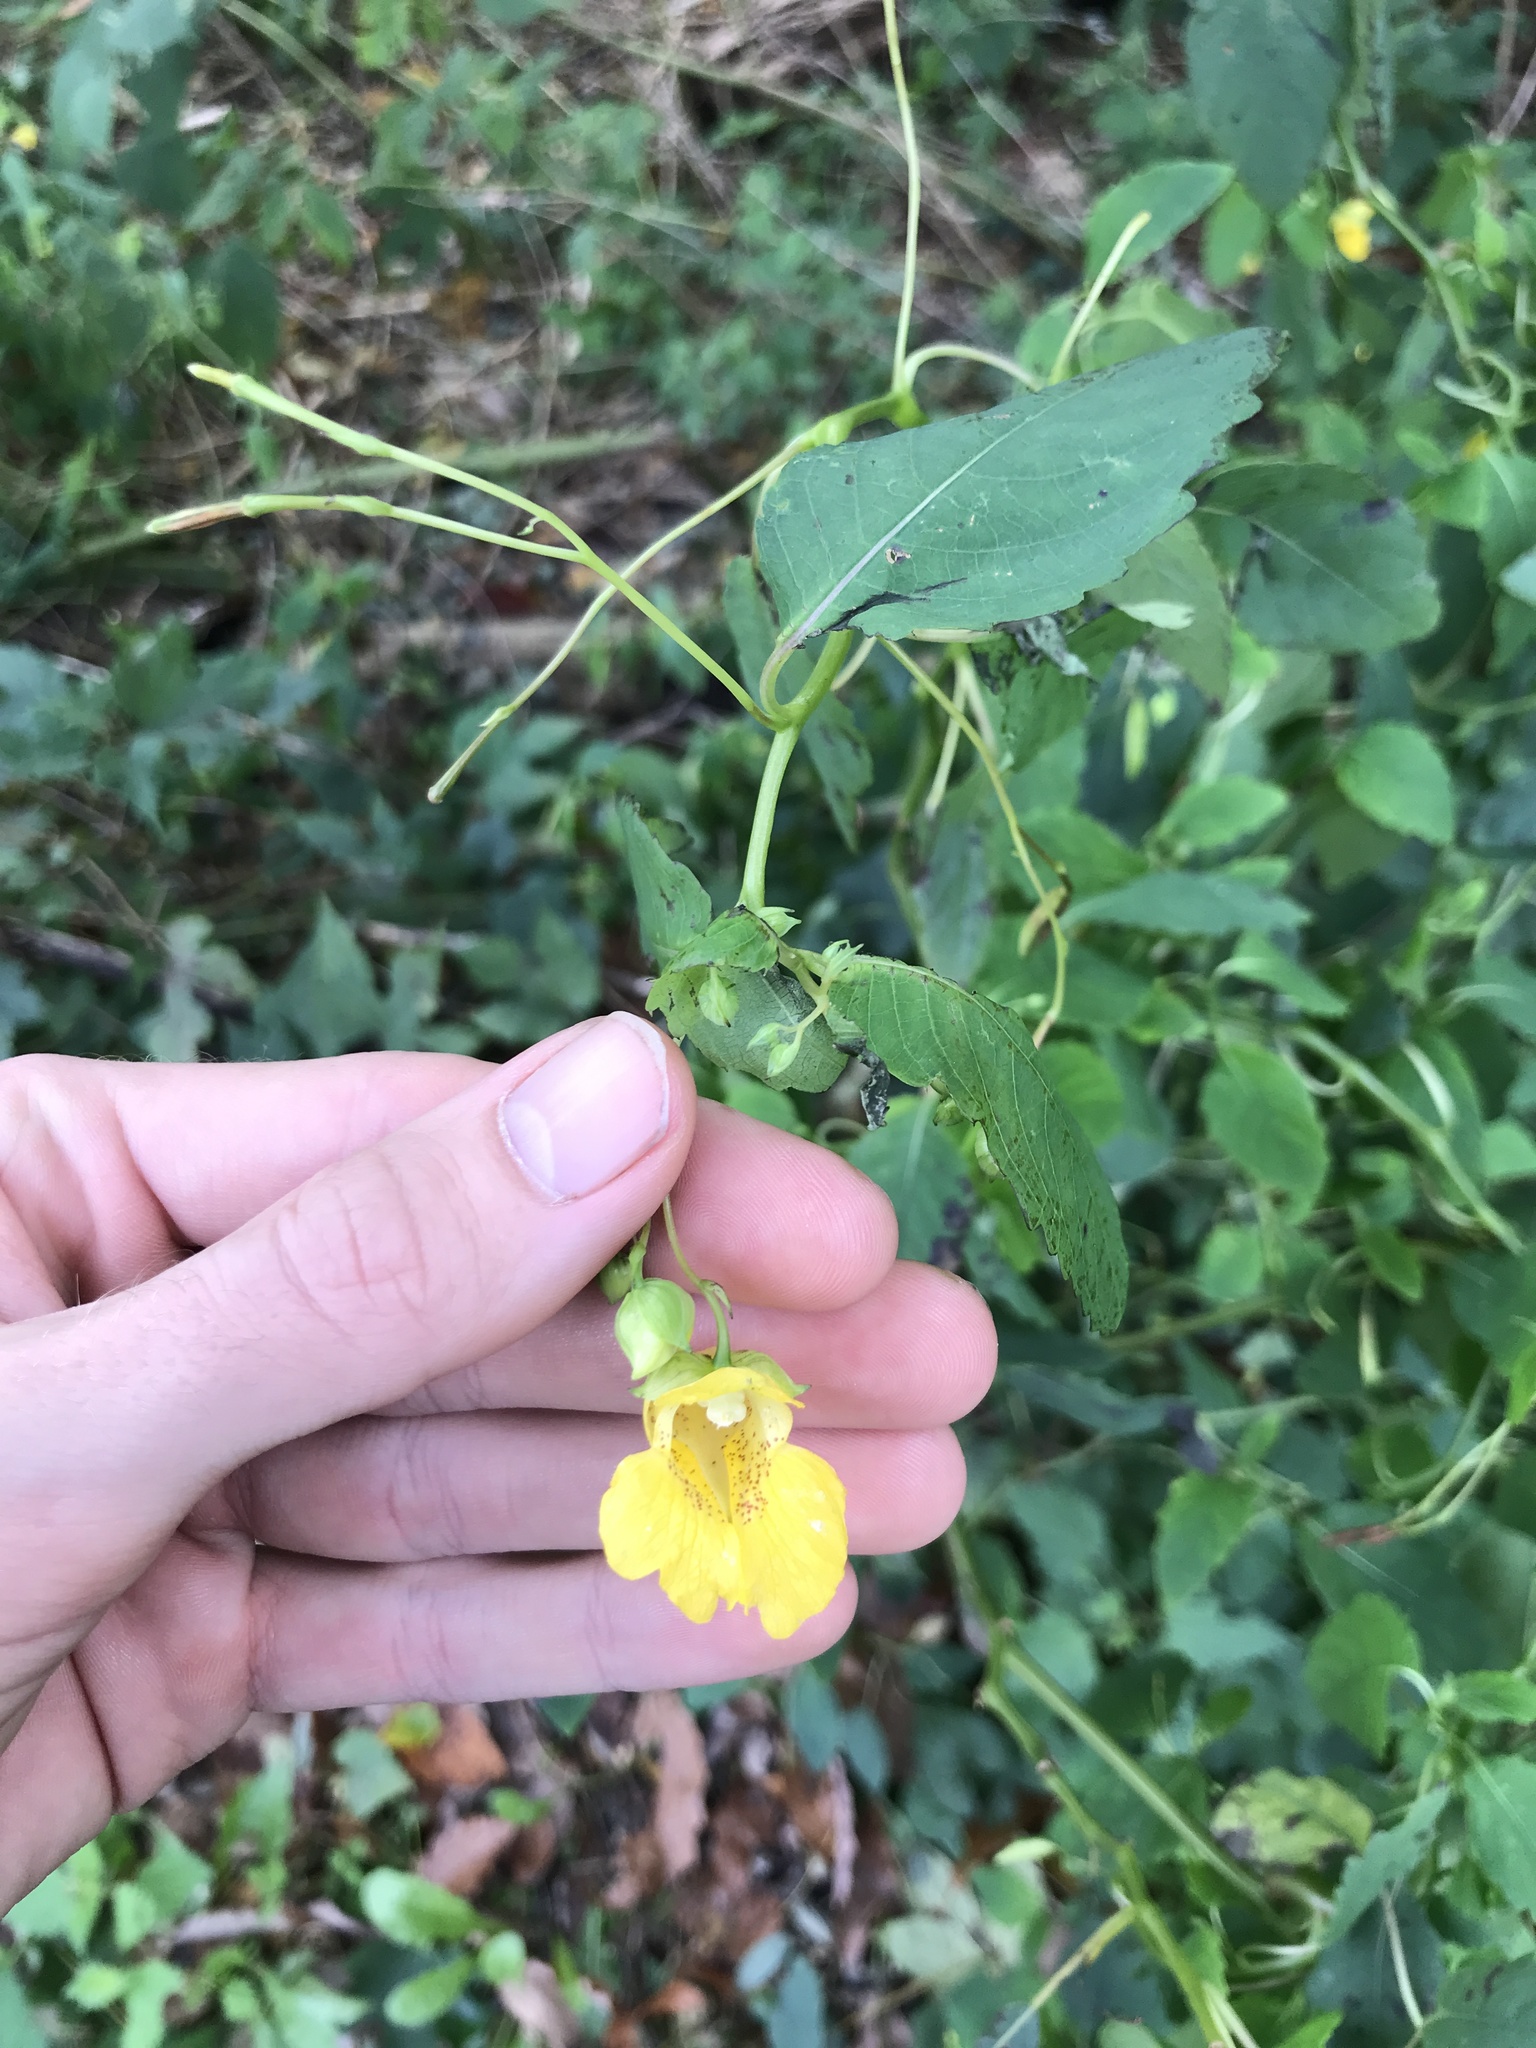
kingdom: Plantae
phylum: Tracheophyta
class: Magnoliopsida
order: Ericales
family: Balsaminaceae
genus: Impatiens
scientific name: Impatiens pallida
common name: Pale snapweed
